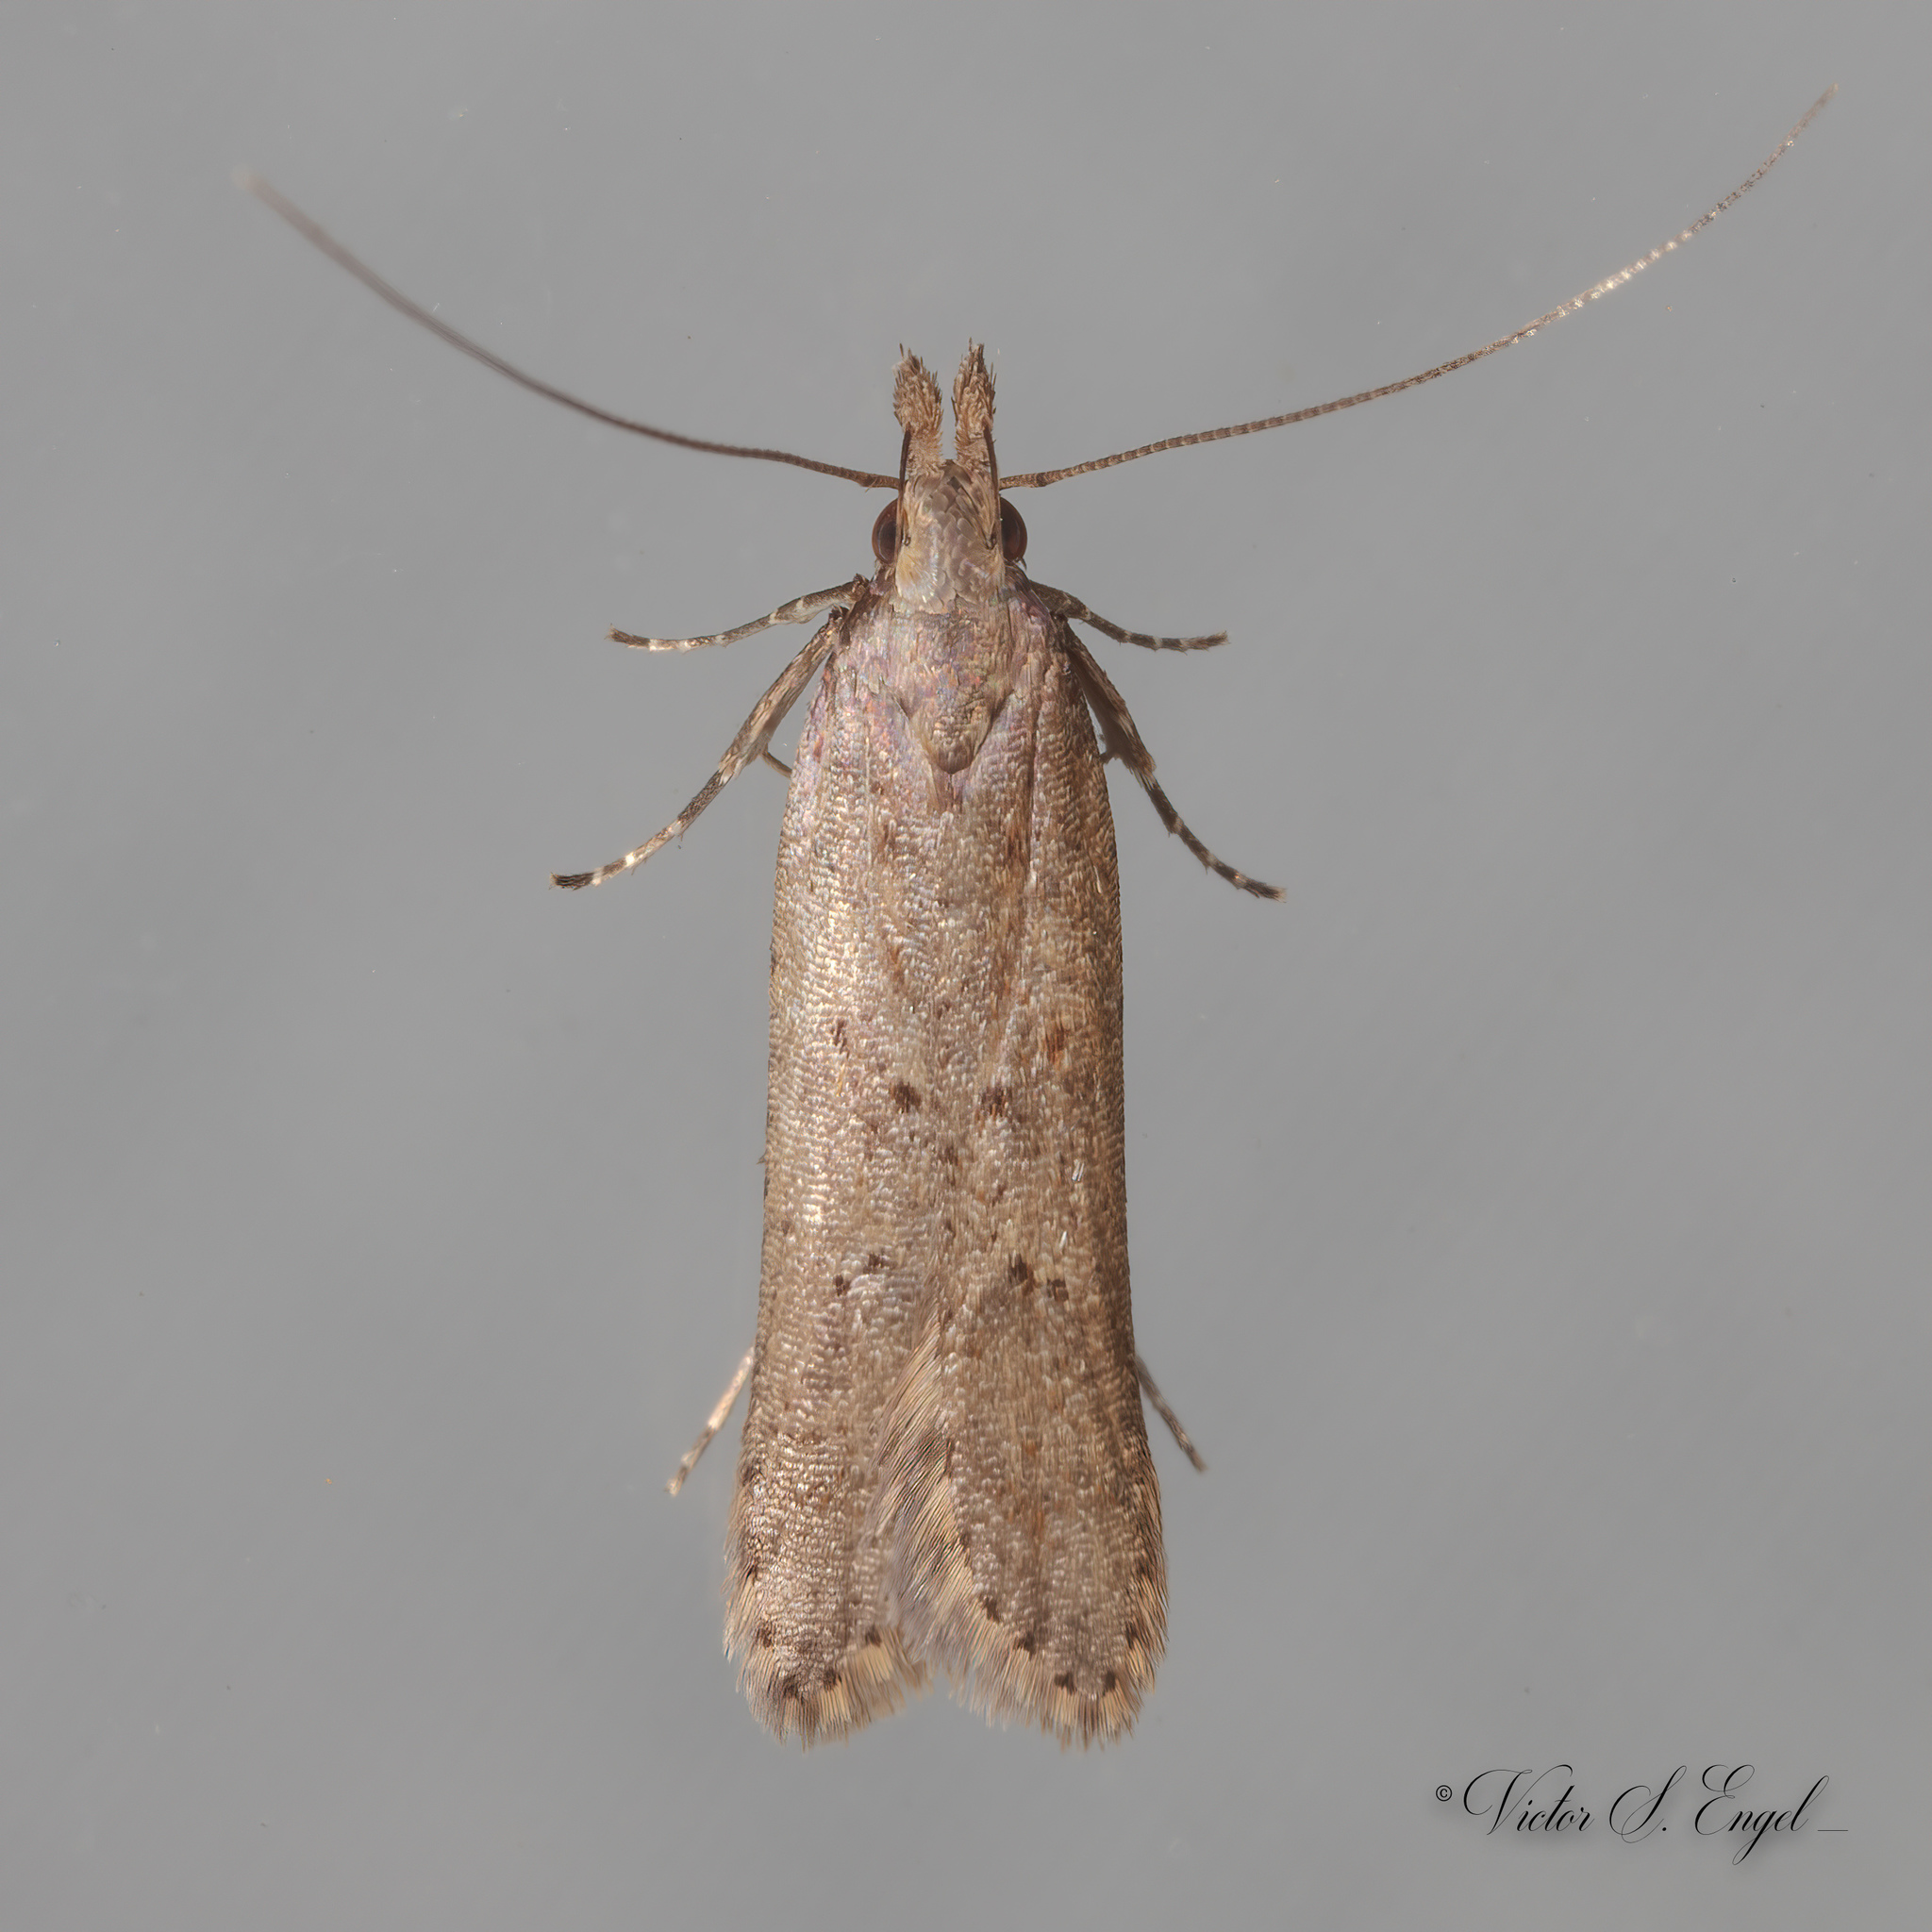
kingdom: Animalia
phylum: Arthropoda
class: Insecta
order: Lepidoptera
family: Gelechiidae
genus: Dichomeris
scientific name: Dichomeris ligulella
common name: Moth
